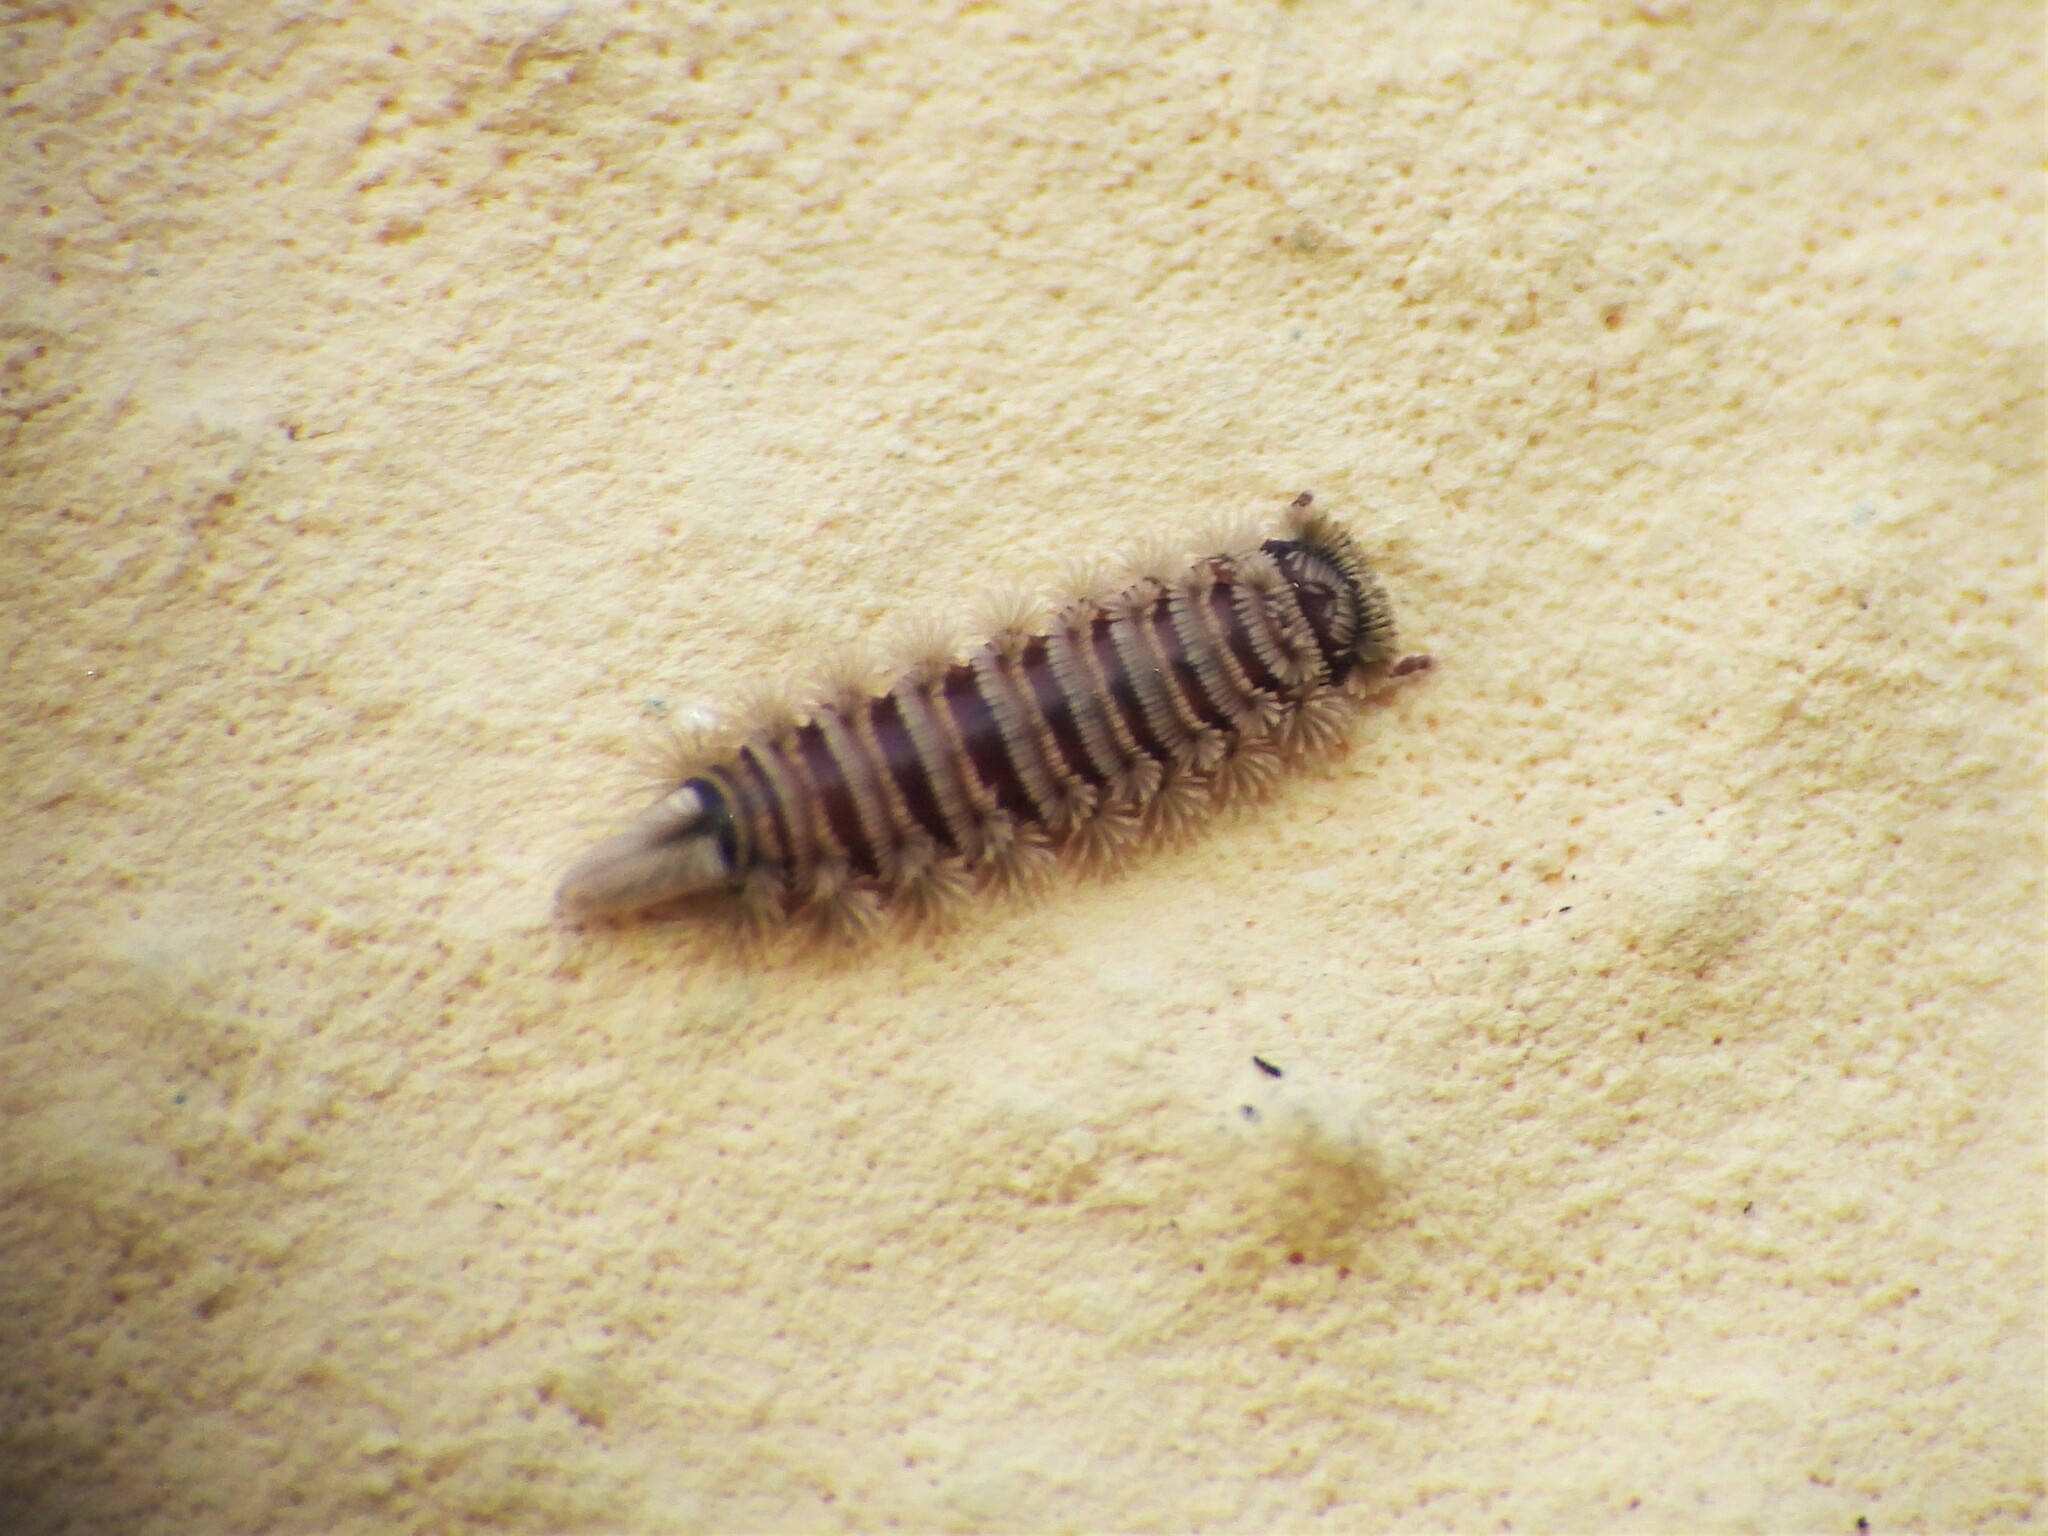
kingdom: Animalia
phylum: Arthropoda
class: Diplopoda
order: Polyxenida
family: Polyxenidae
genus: Polyxenus
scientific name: Polyxenus lagurus
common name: Bristly millipede
